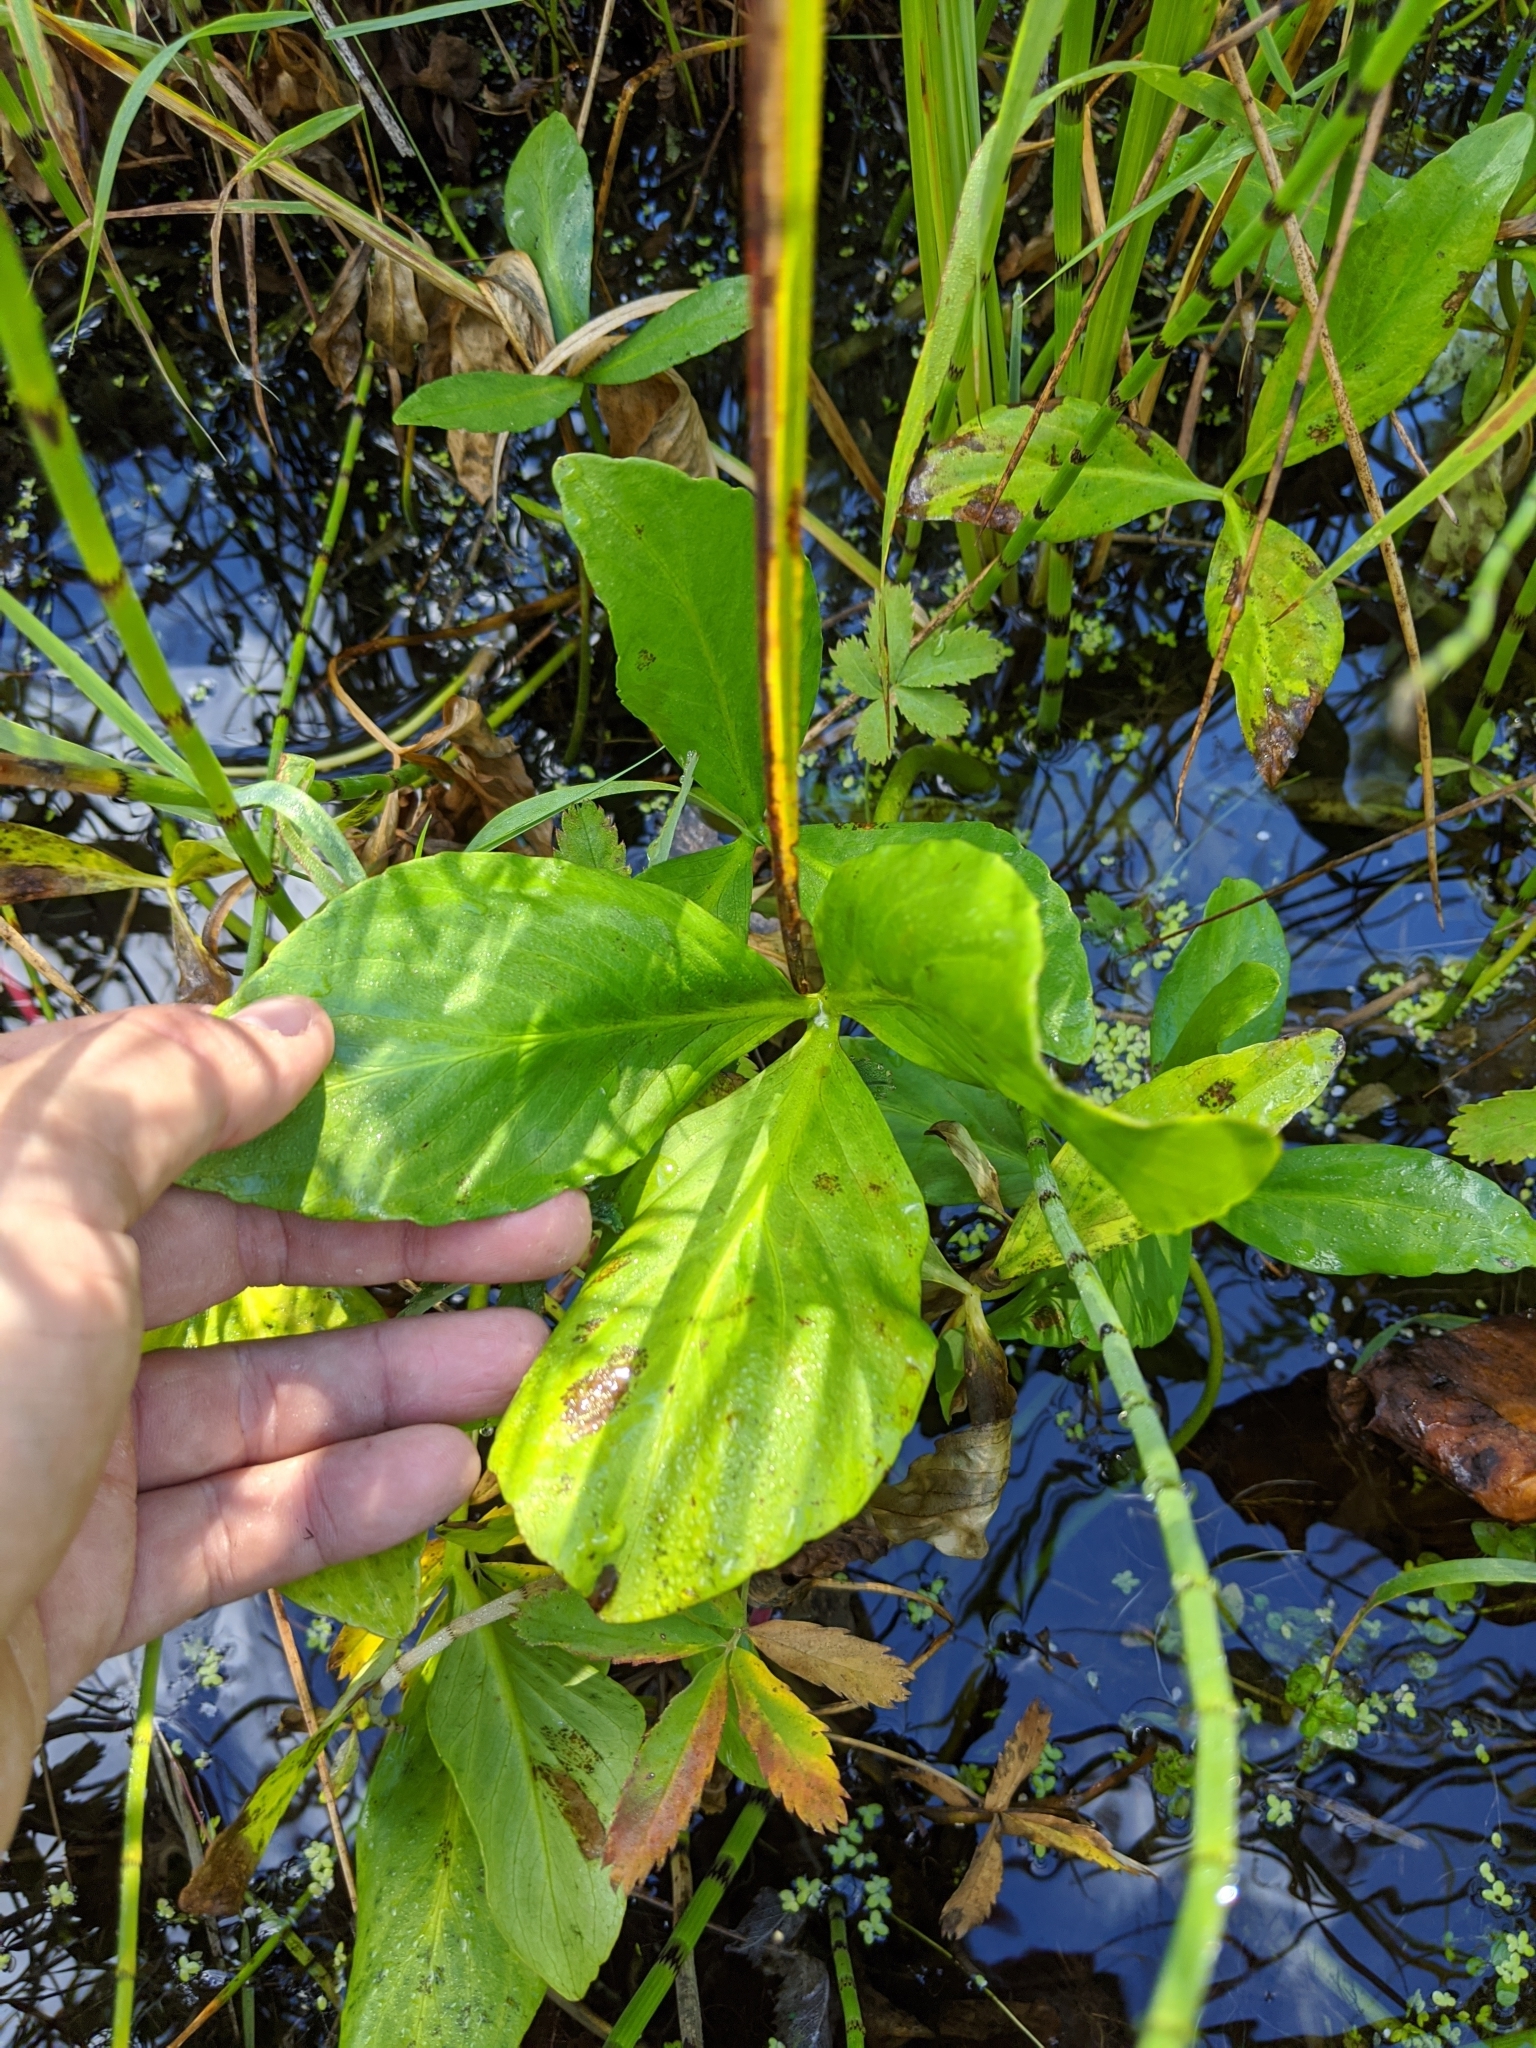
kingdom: Plantae
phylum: Tracheophyta
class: Magnoliopsida
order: Asterales
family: Menyanthaceae
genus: Menyanthes
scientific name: Menyanthes trifoliata
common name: Bogbean
